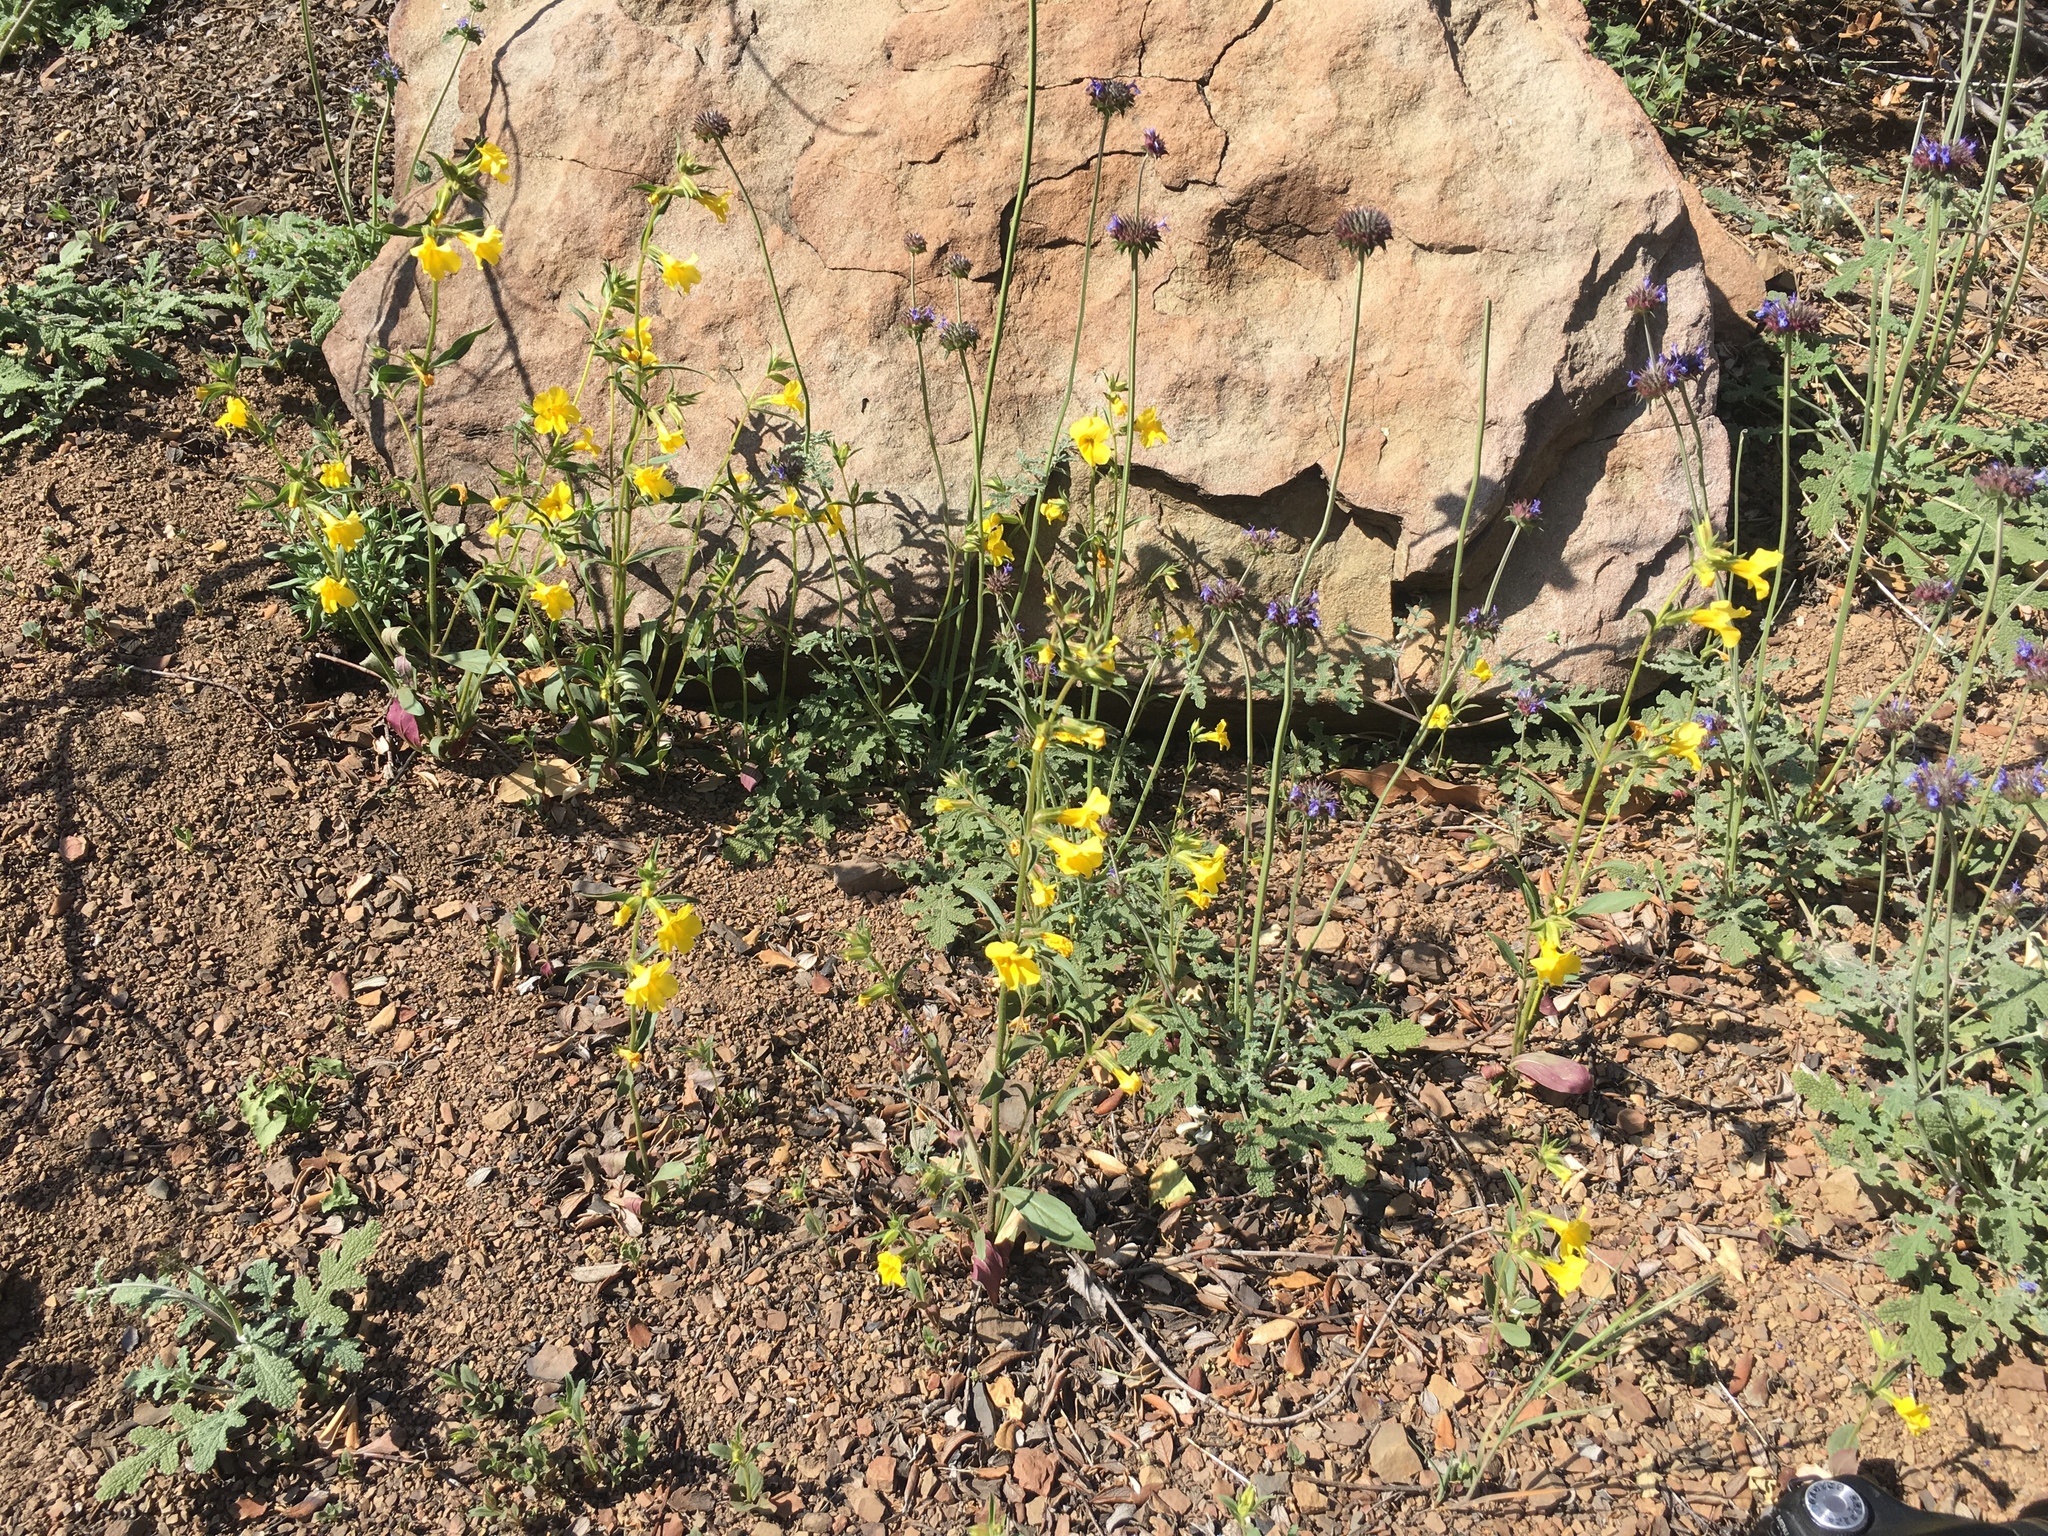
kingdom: Plantae
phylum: Tracheophyta
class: Magnoliopsida
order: Lamiales
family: Phrymaceae
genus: Diplacus
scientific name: Diplacus brevipes
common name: Wide-throat yellow monkey-flower
